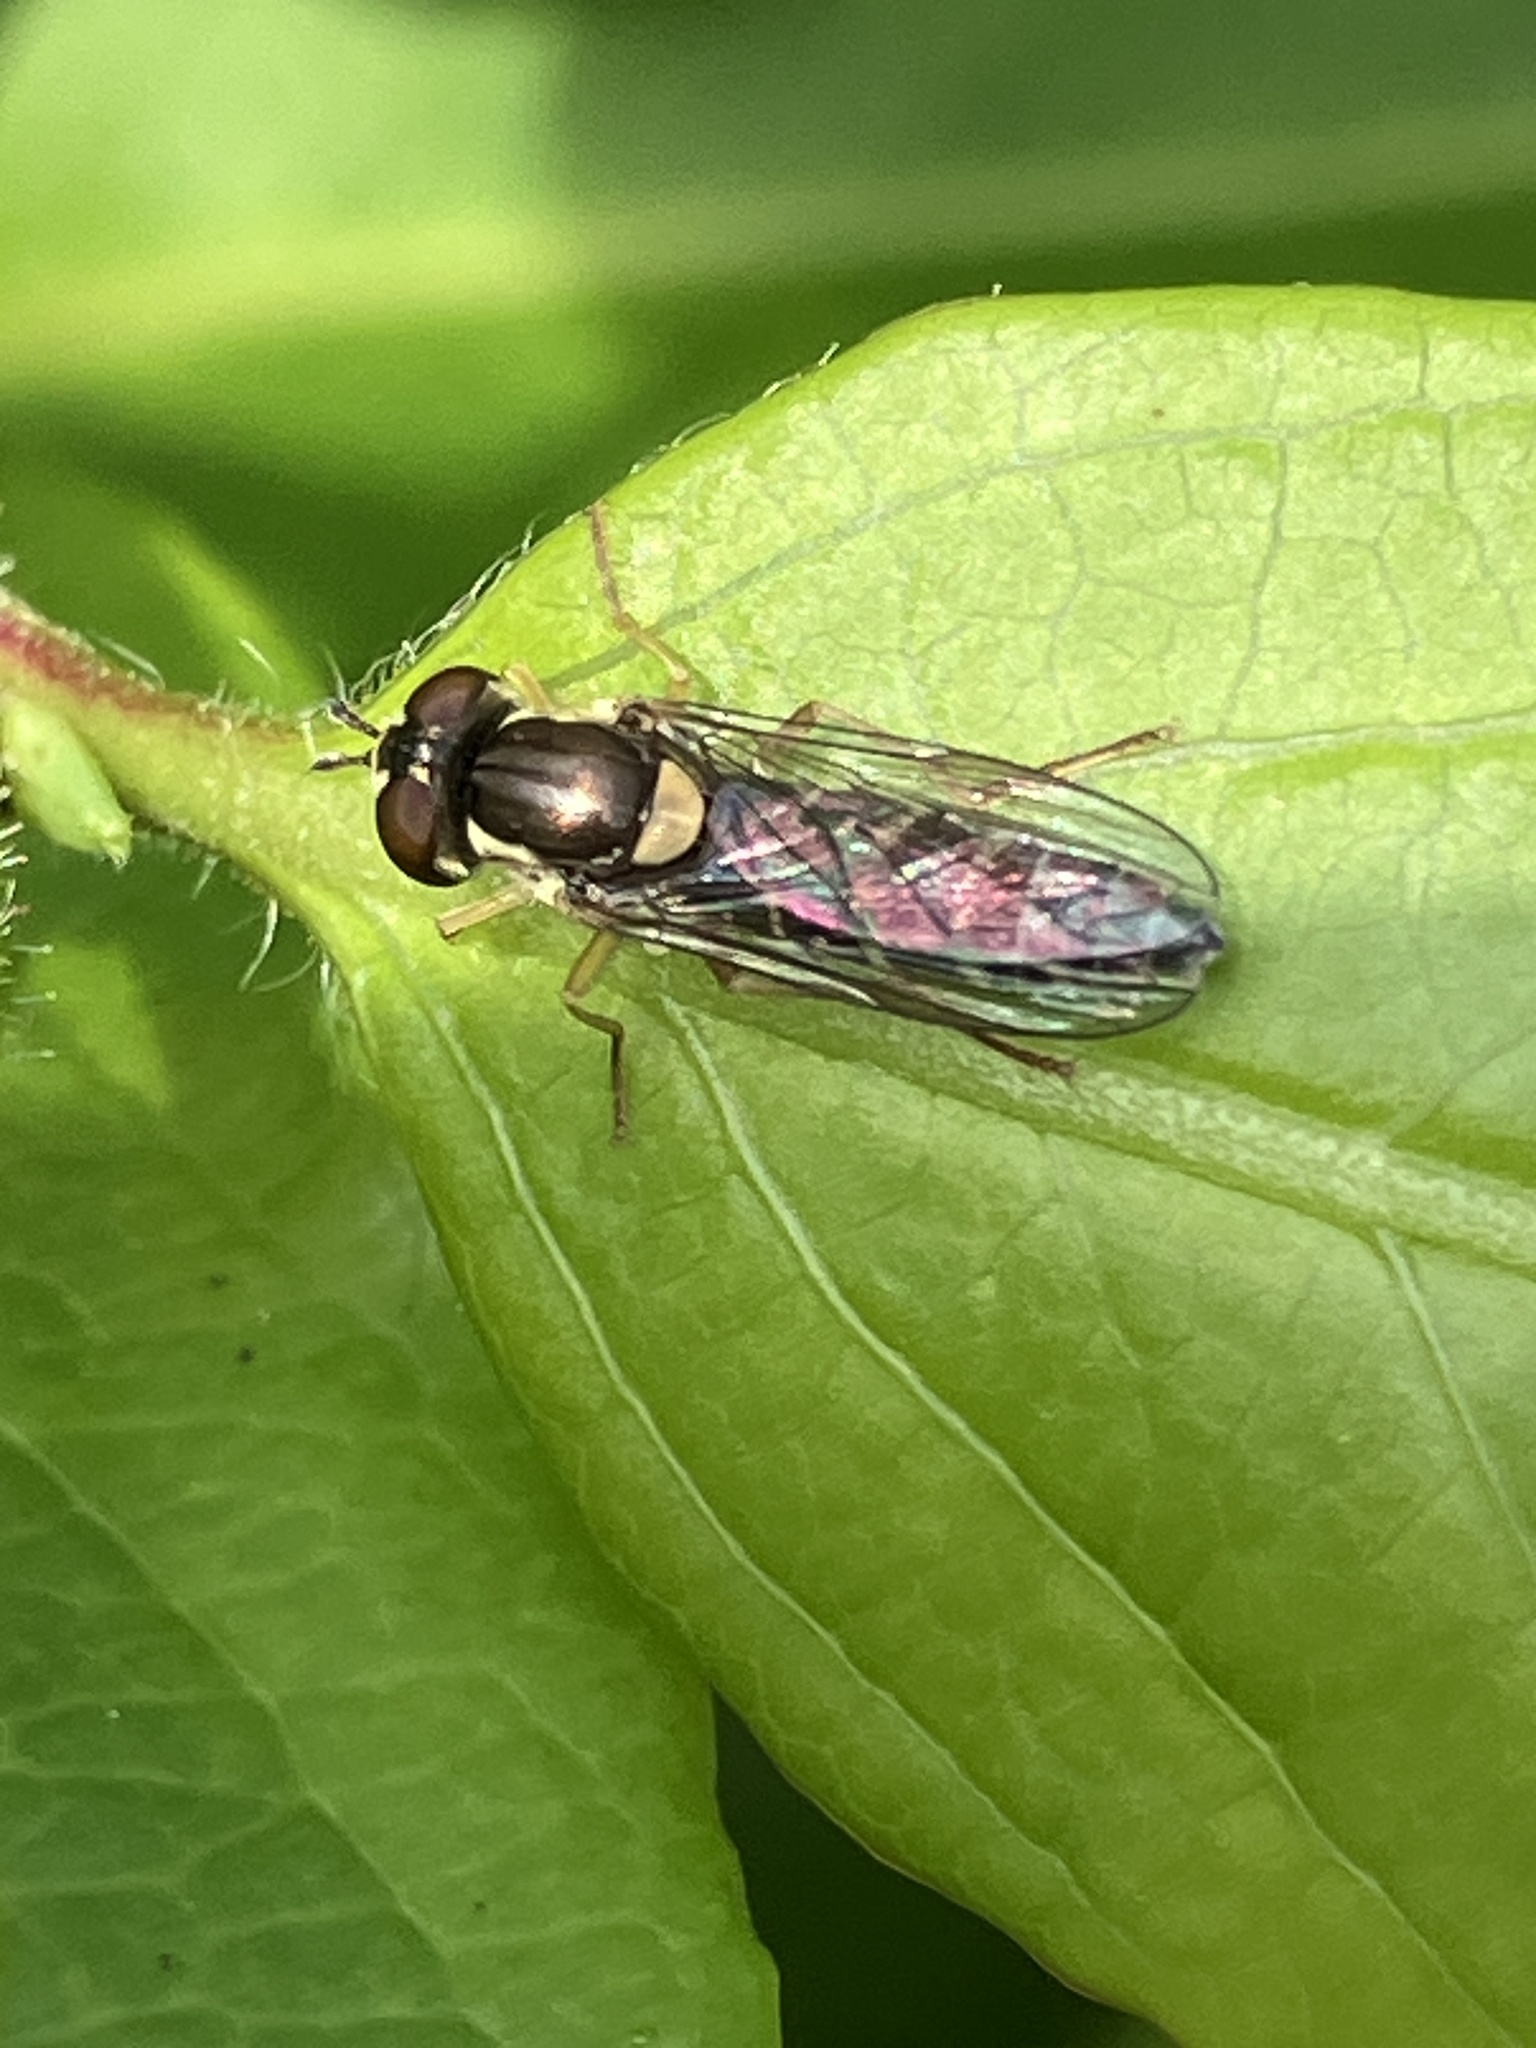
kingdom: Animalia
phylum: Arthropoda
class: Insecta
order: Diptera
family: Syrphidae
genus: Sphaerophoria
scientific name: Sphaerophoria
